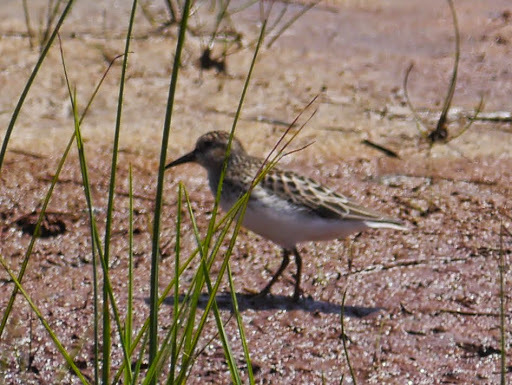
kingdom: Animalia
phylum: Chordata
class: Aves
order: Charadriiformes
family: Scolopacidae
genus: Calidris
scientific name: Calidris minutilla
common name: Least sandpiper
